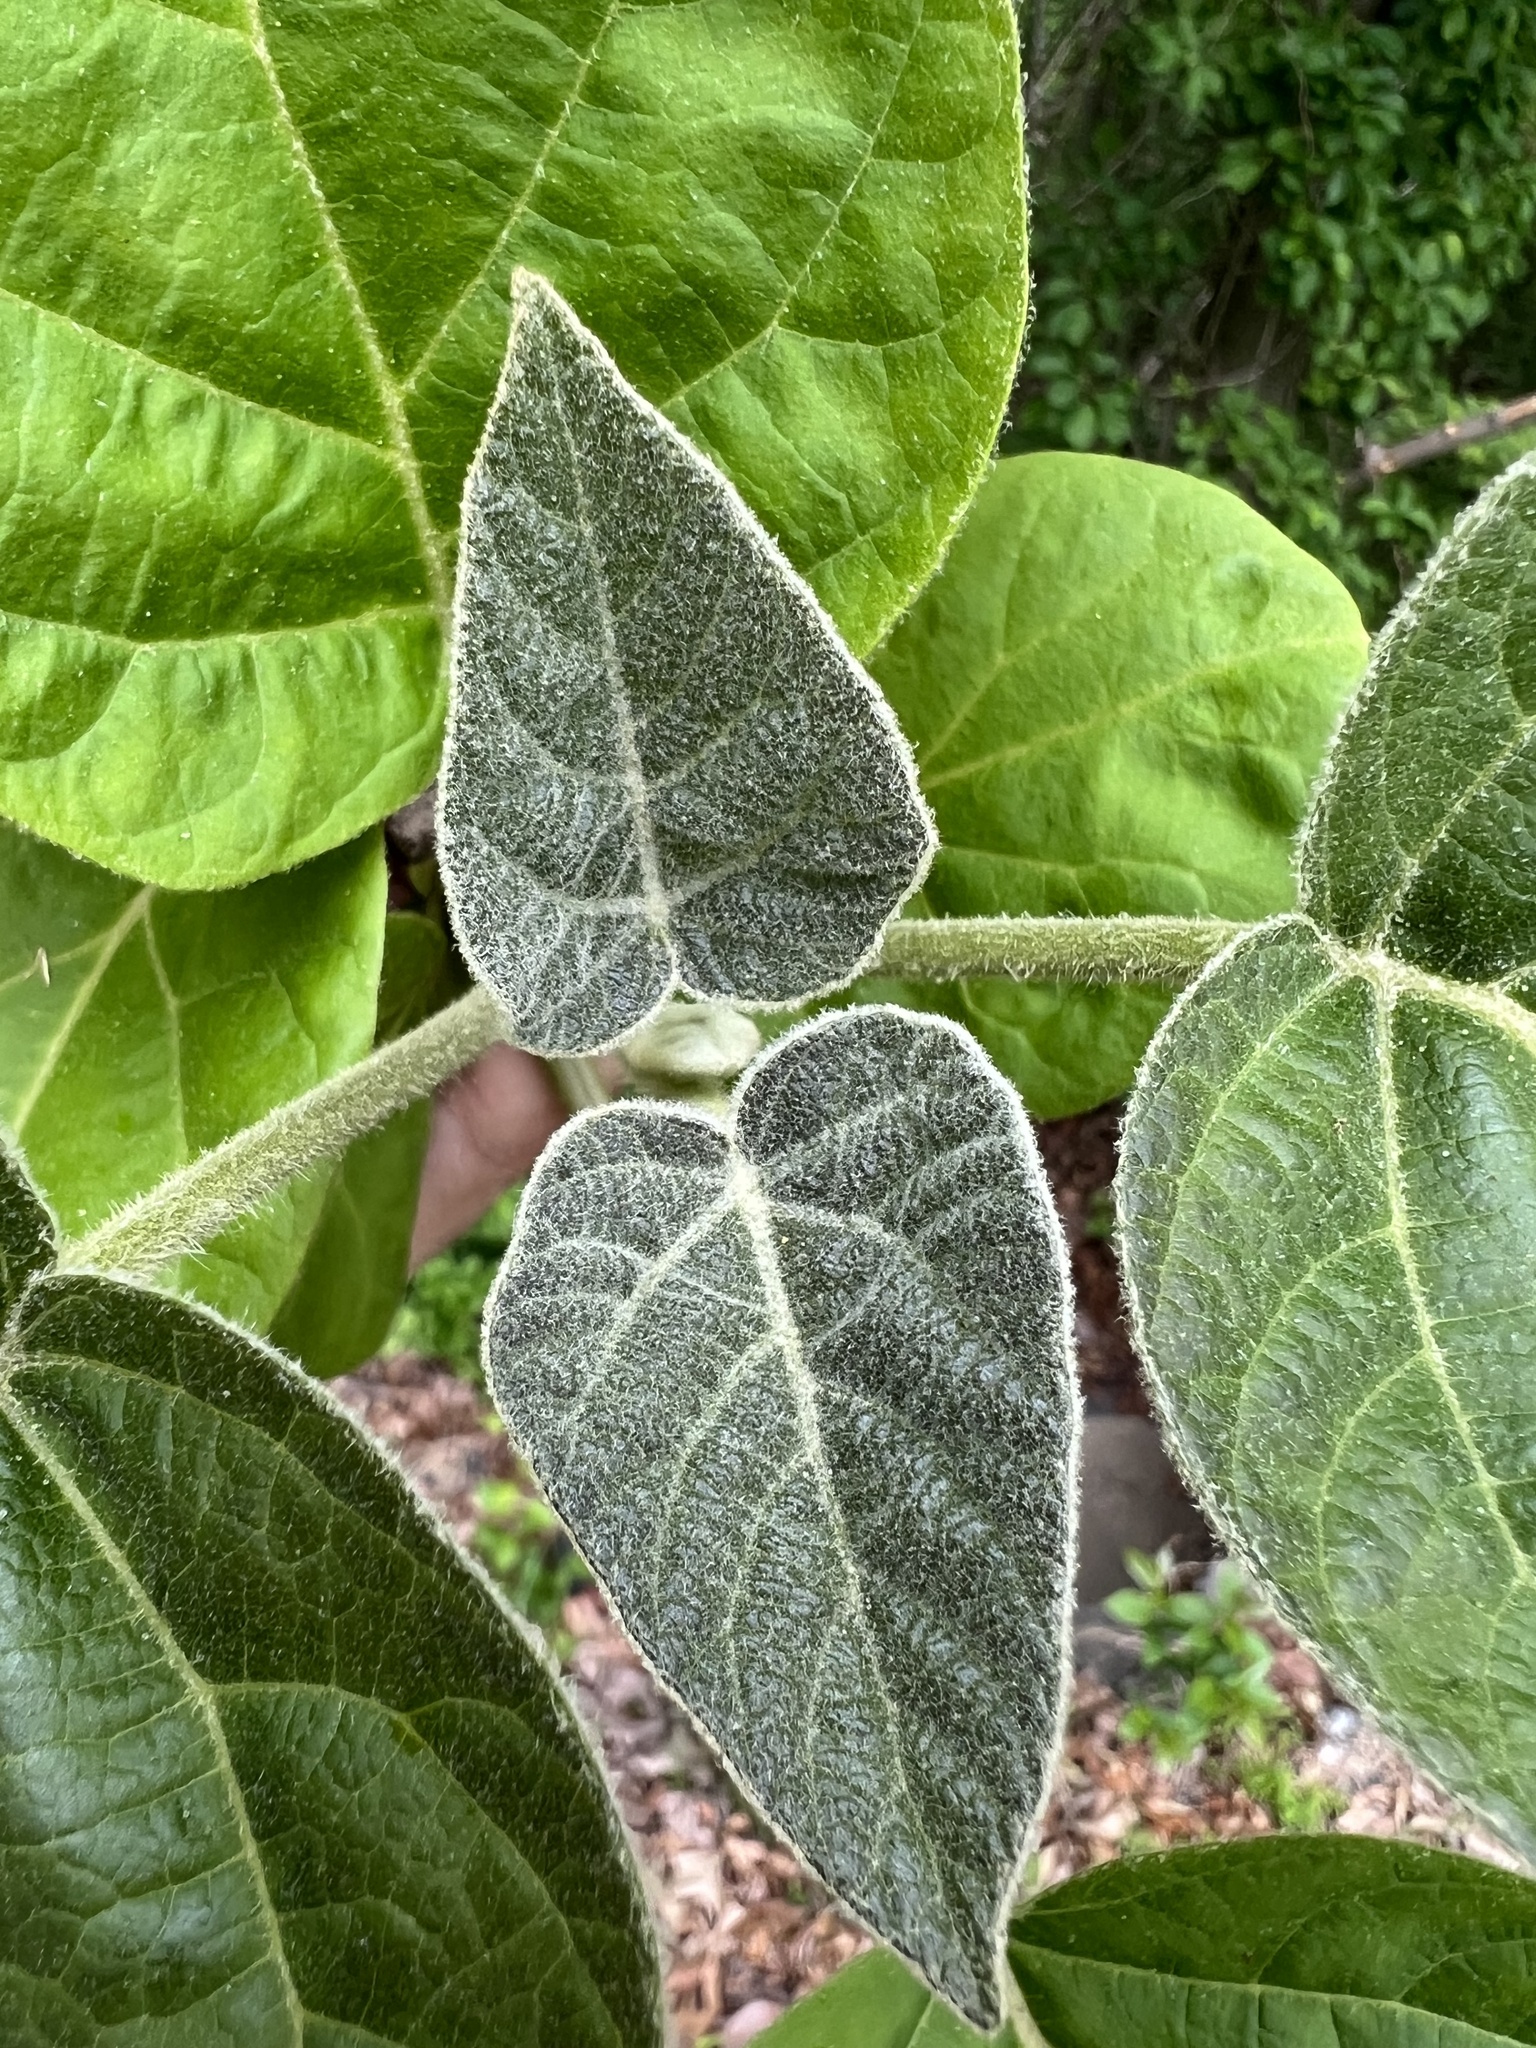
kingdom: Plantae
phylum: Tracheophyta
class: Magnoliopsida
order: Lamiales
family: Paulowniaceae
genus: Paulownia
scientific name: Paulownia tomentosa
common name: Foxglove-tree
